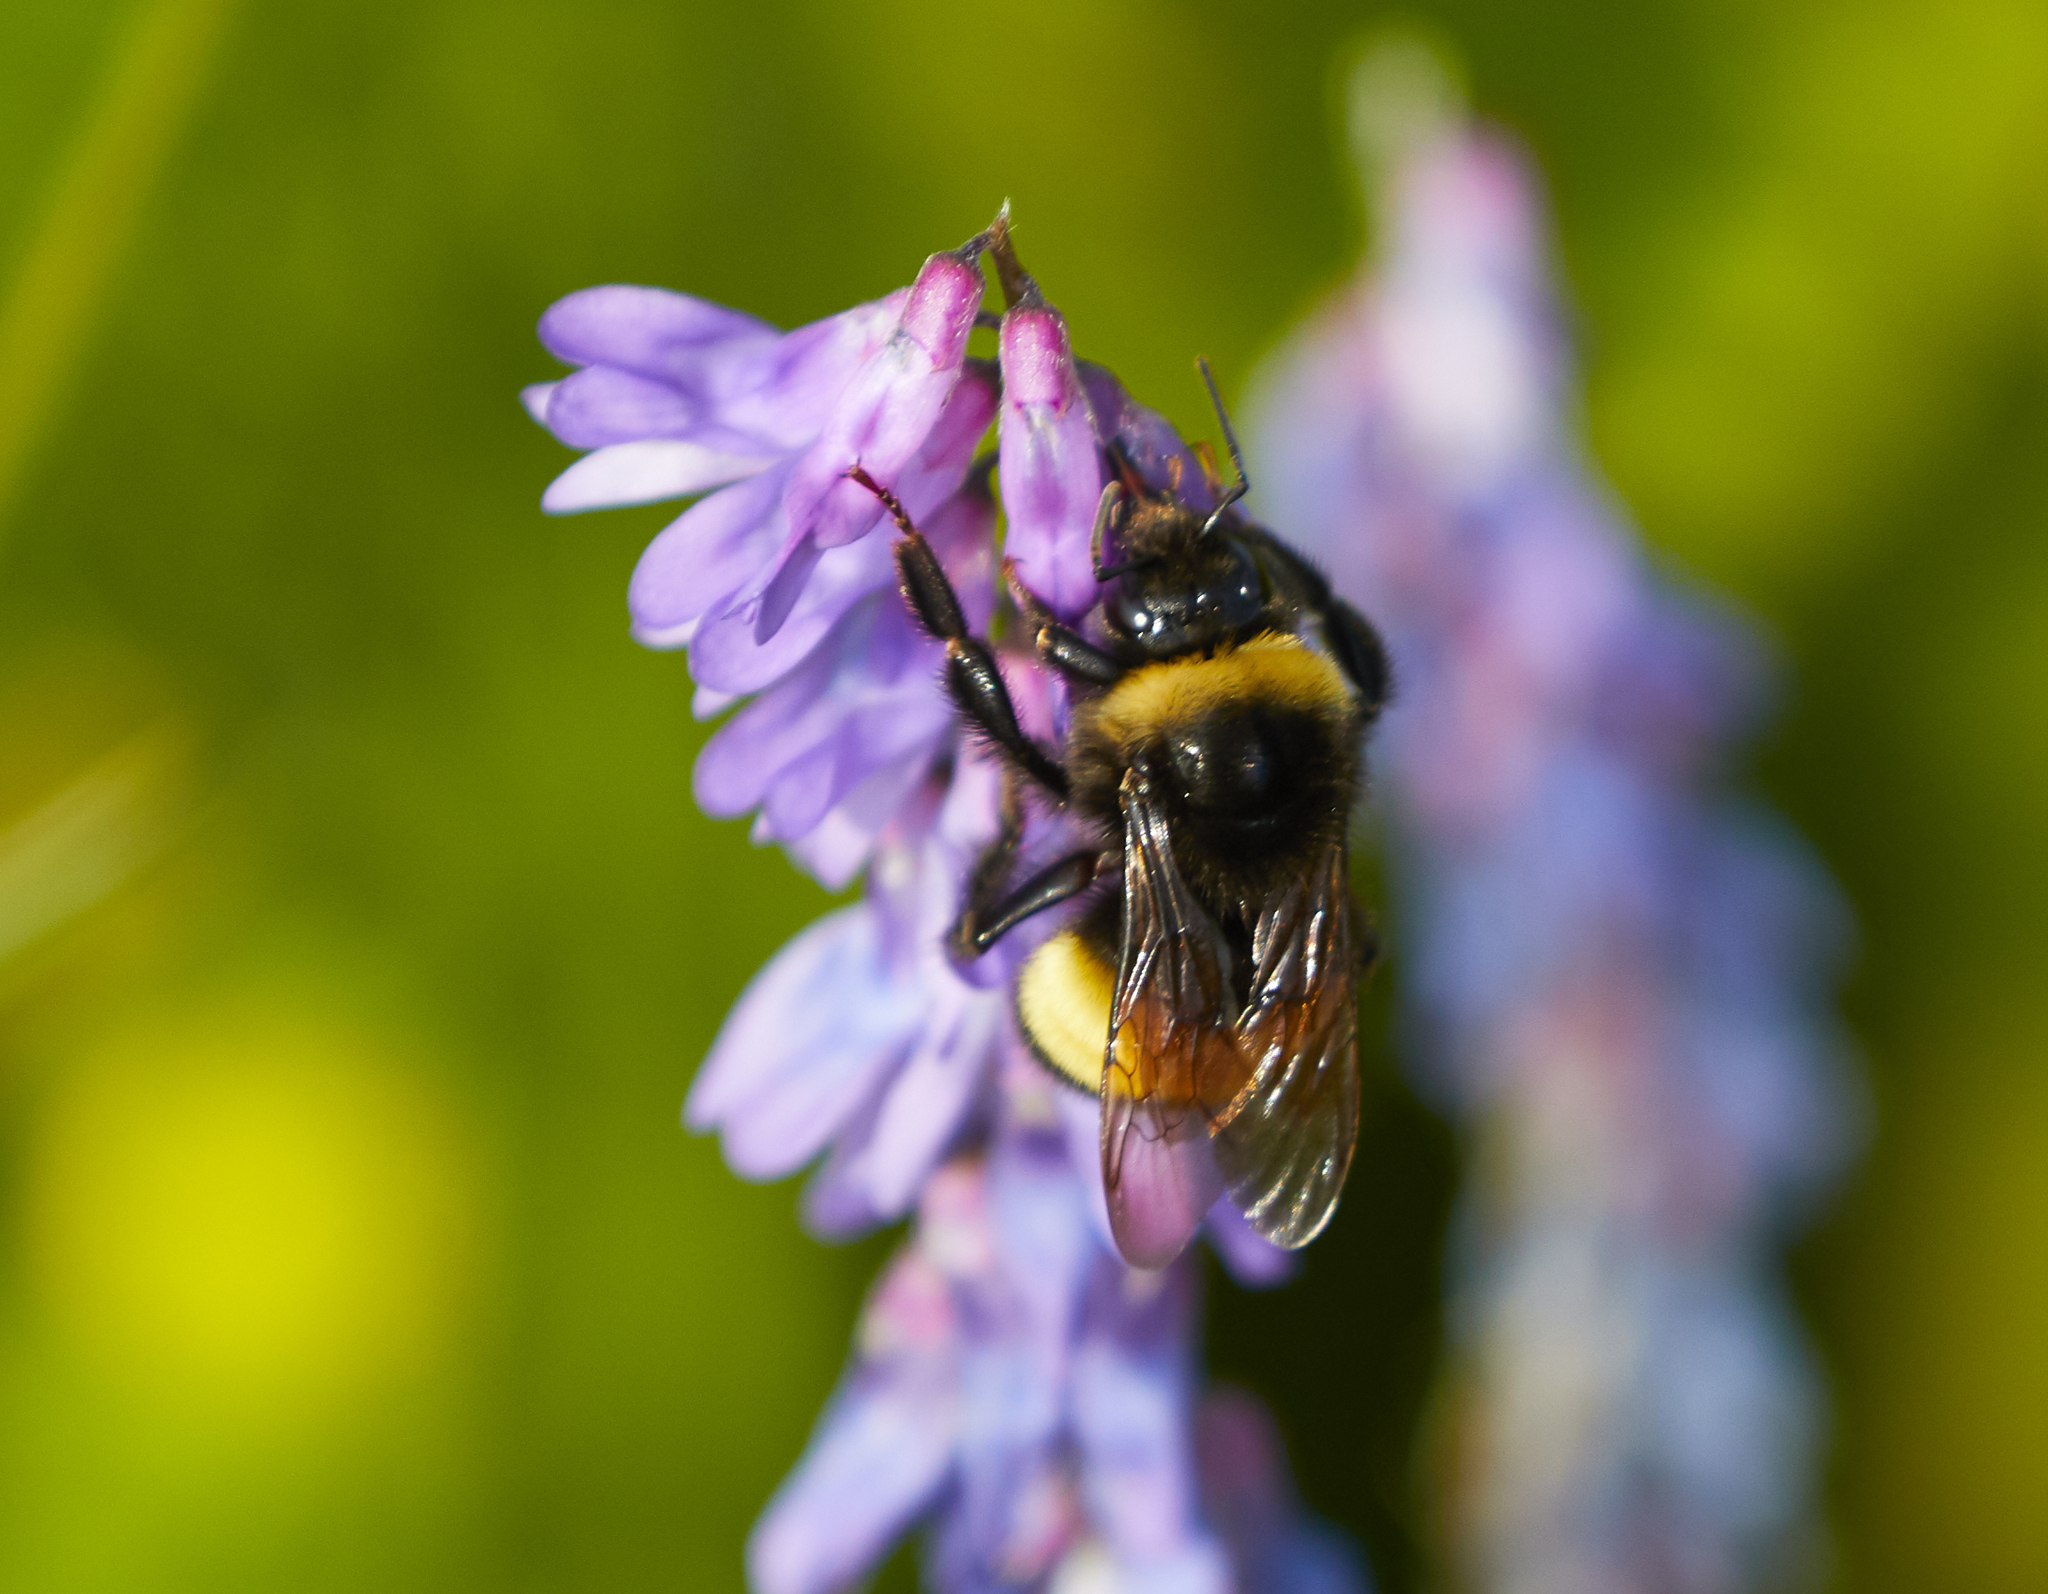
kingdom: Animalia
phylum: Arthropoda
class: Insecta
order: Hymenoptera
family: Apidae
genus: Bombus
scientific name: Bombus terricola
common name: Yellow-banded bumble bee
